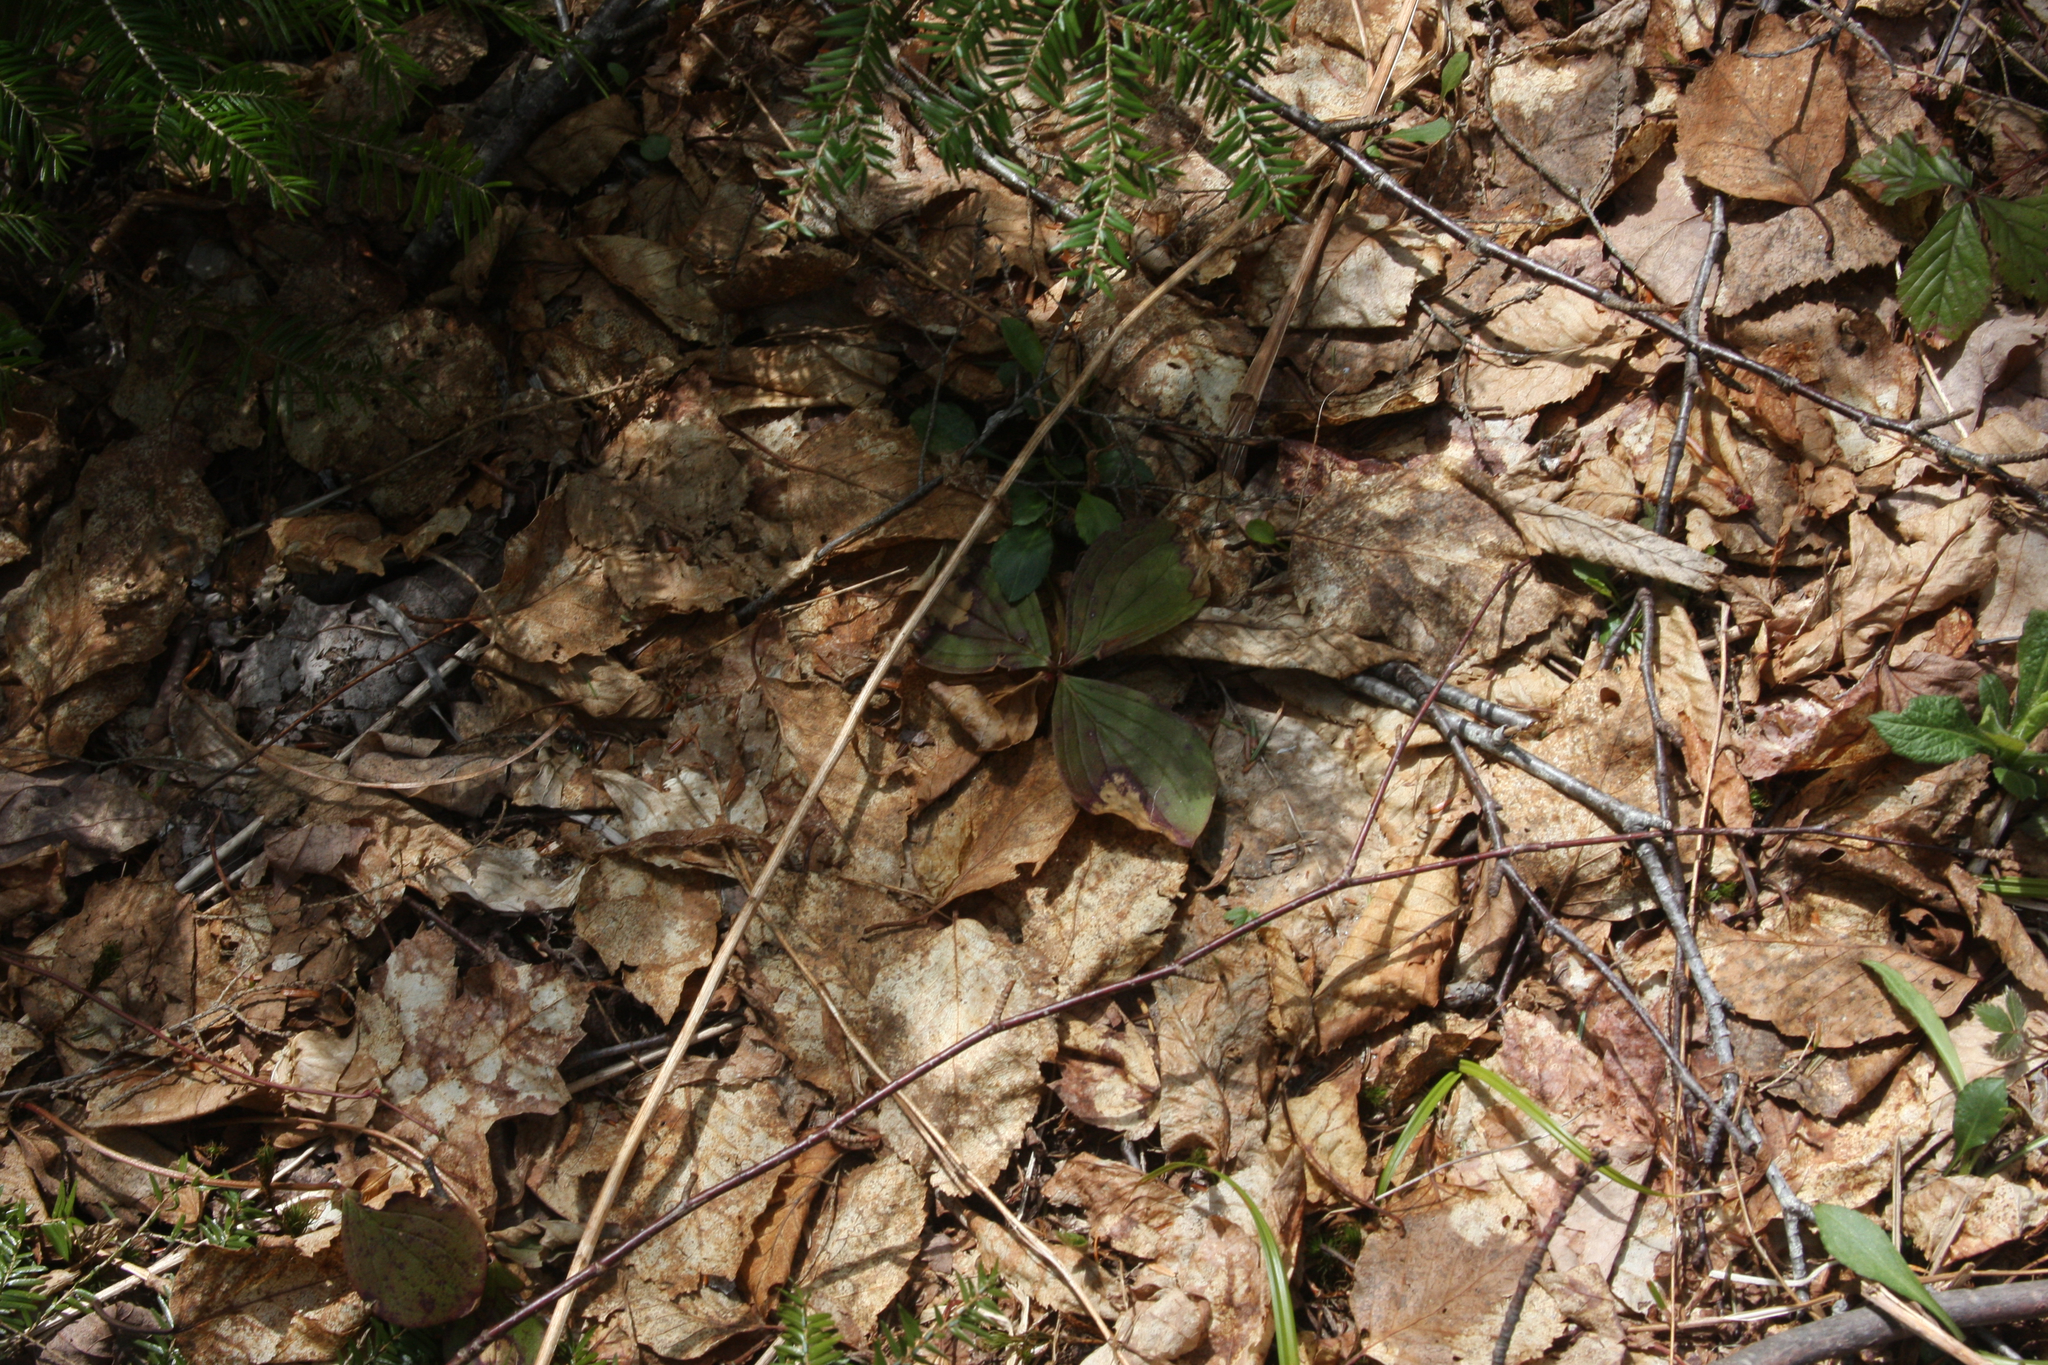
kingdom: Plantae
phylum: Tracheophyta
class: Magnoliopsida
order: Cornales
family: Cornaceae
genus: Cornus
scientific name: Cornus canadensis
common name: Creeping dogwood
